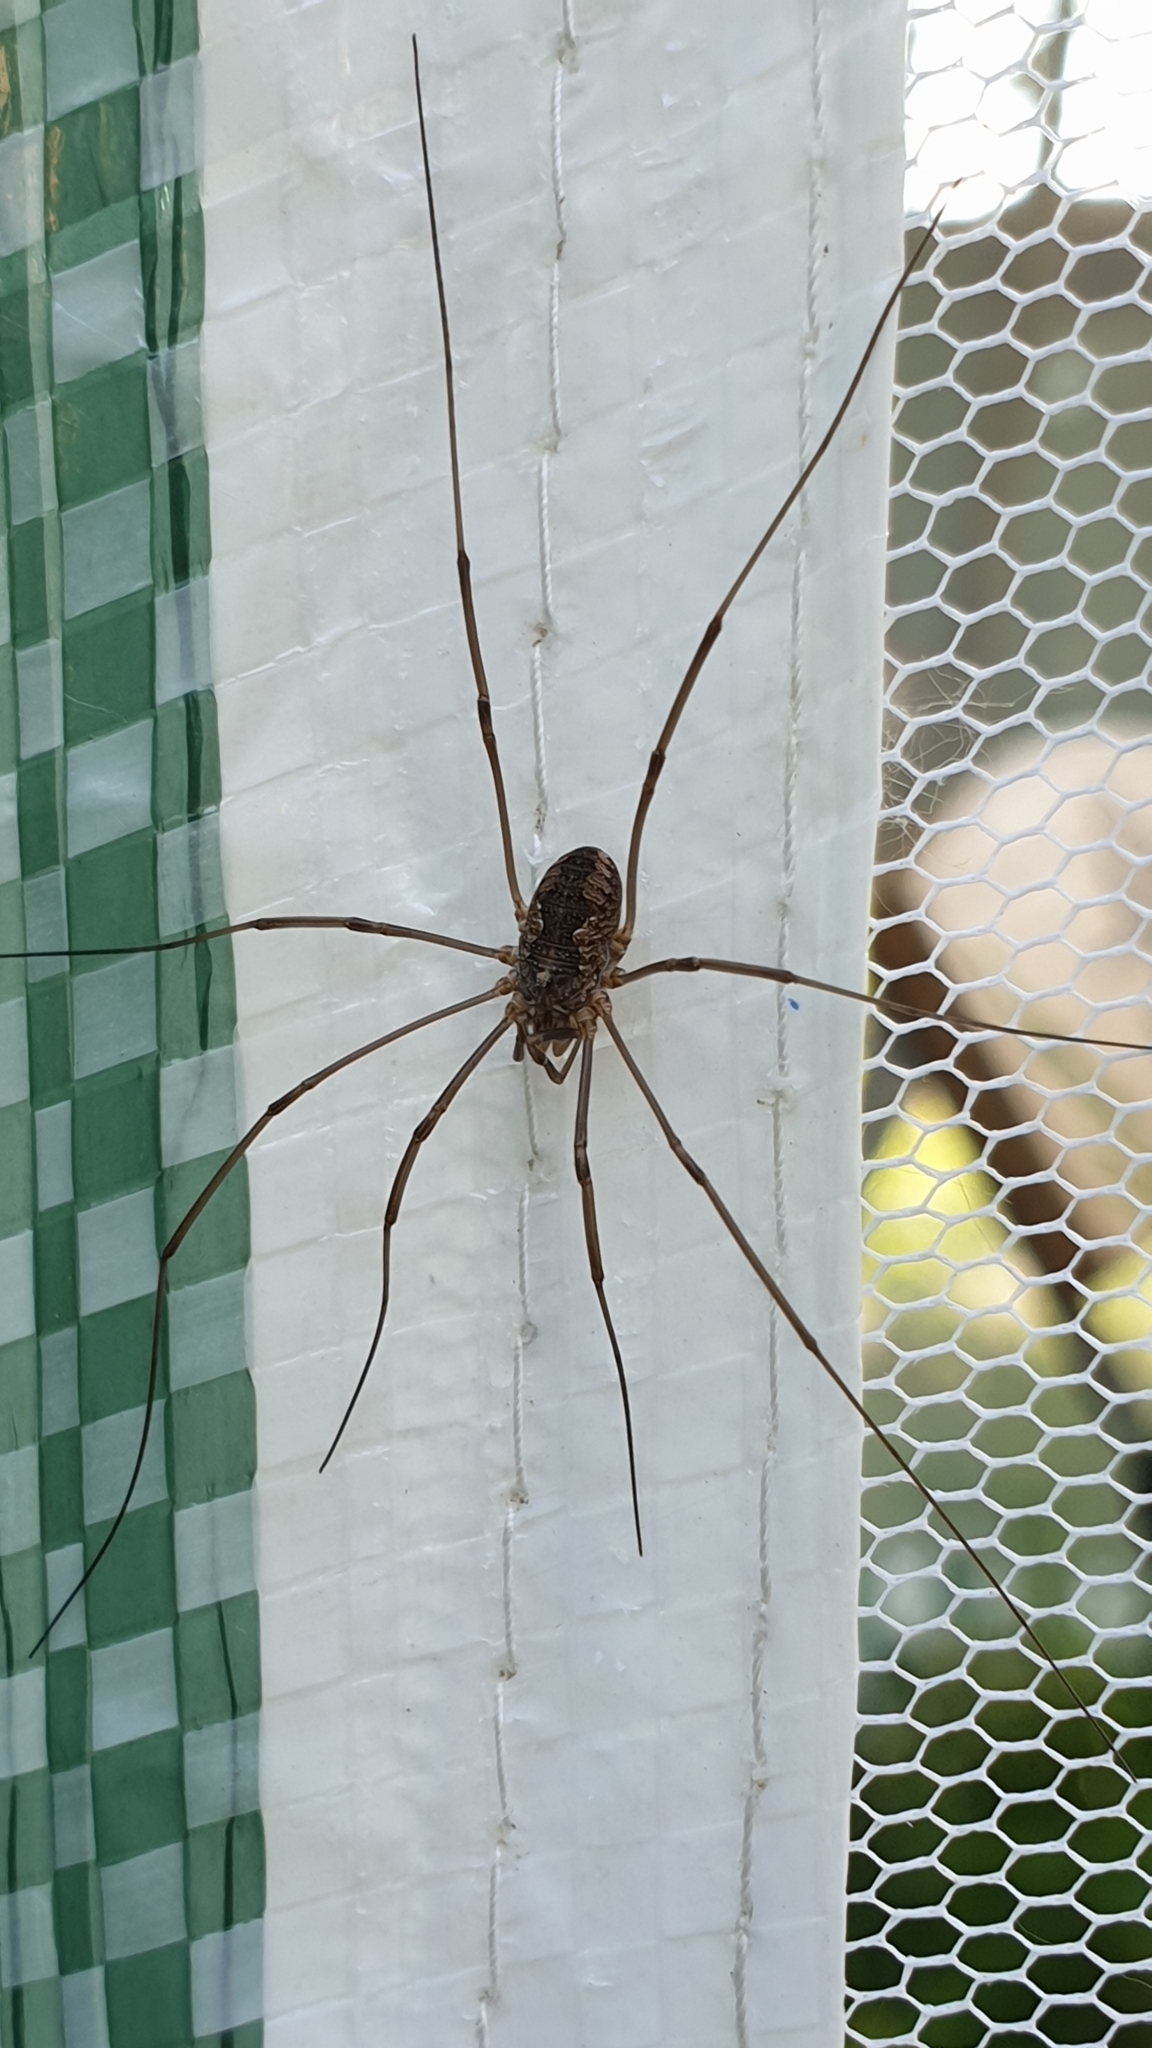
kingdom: Animalia
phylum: Arthropoda
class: Arachnida
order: Opiliones
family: Phalangiidae
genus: Phalangium
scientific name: Phalangium opilio
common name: Daddy longleg
